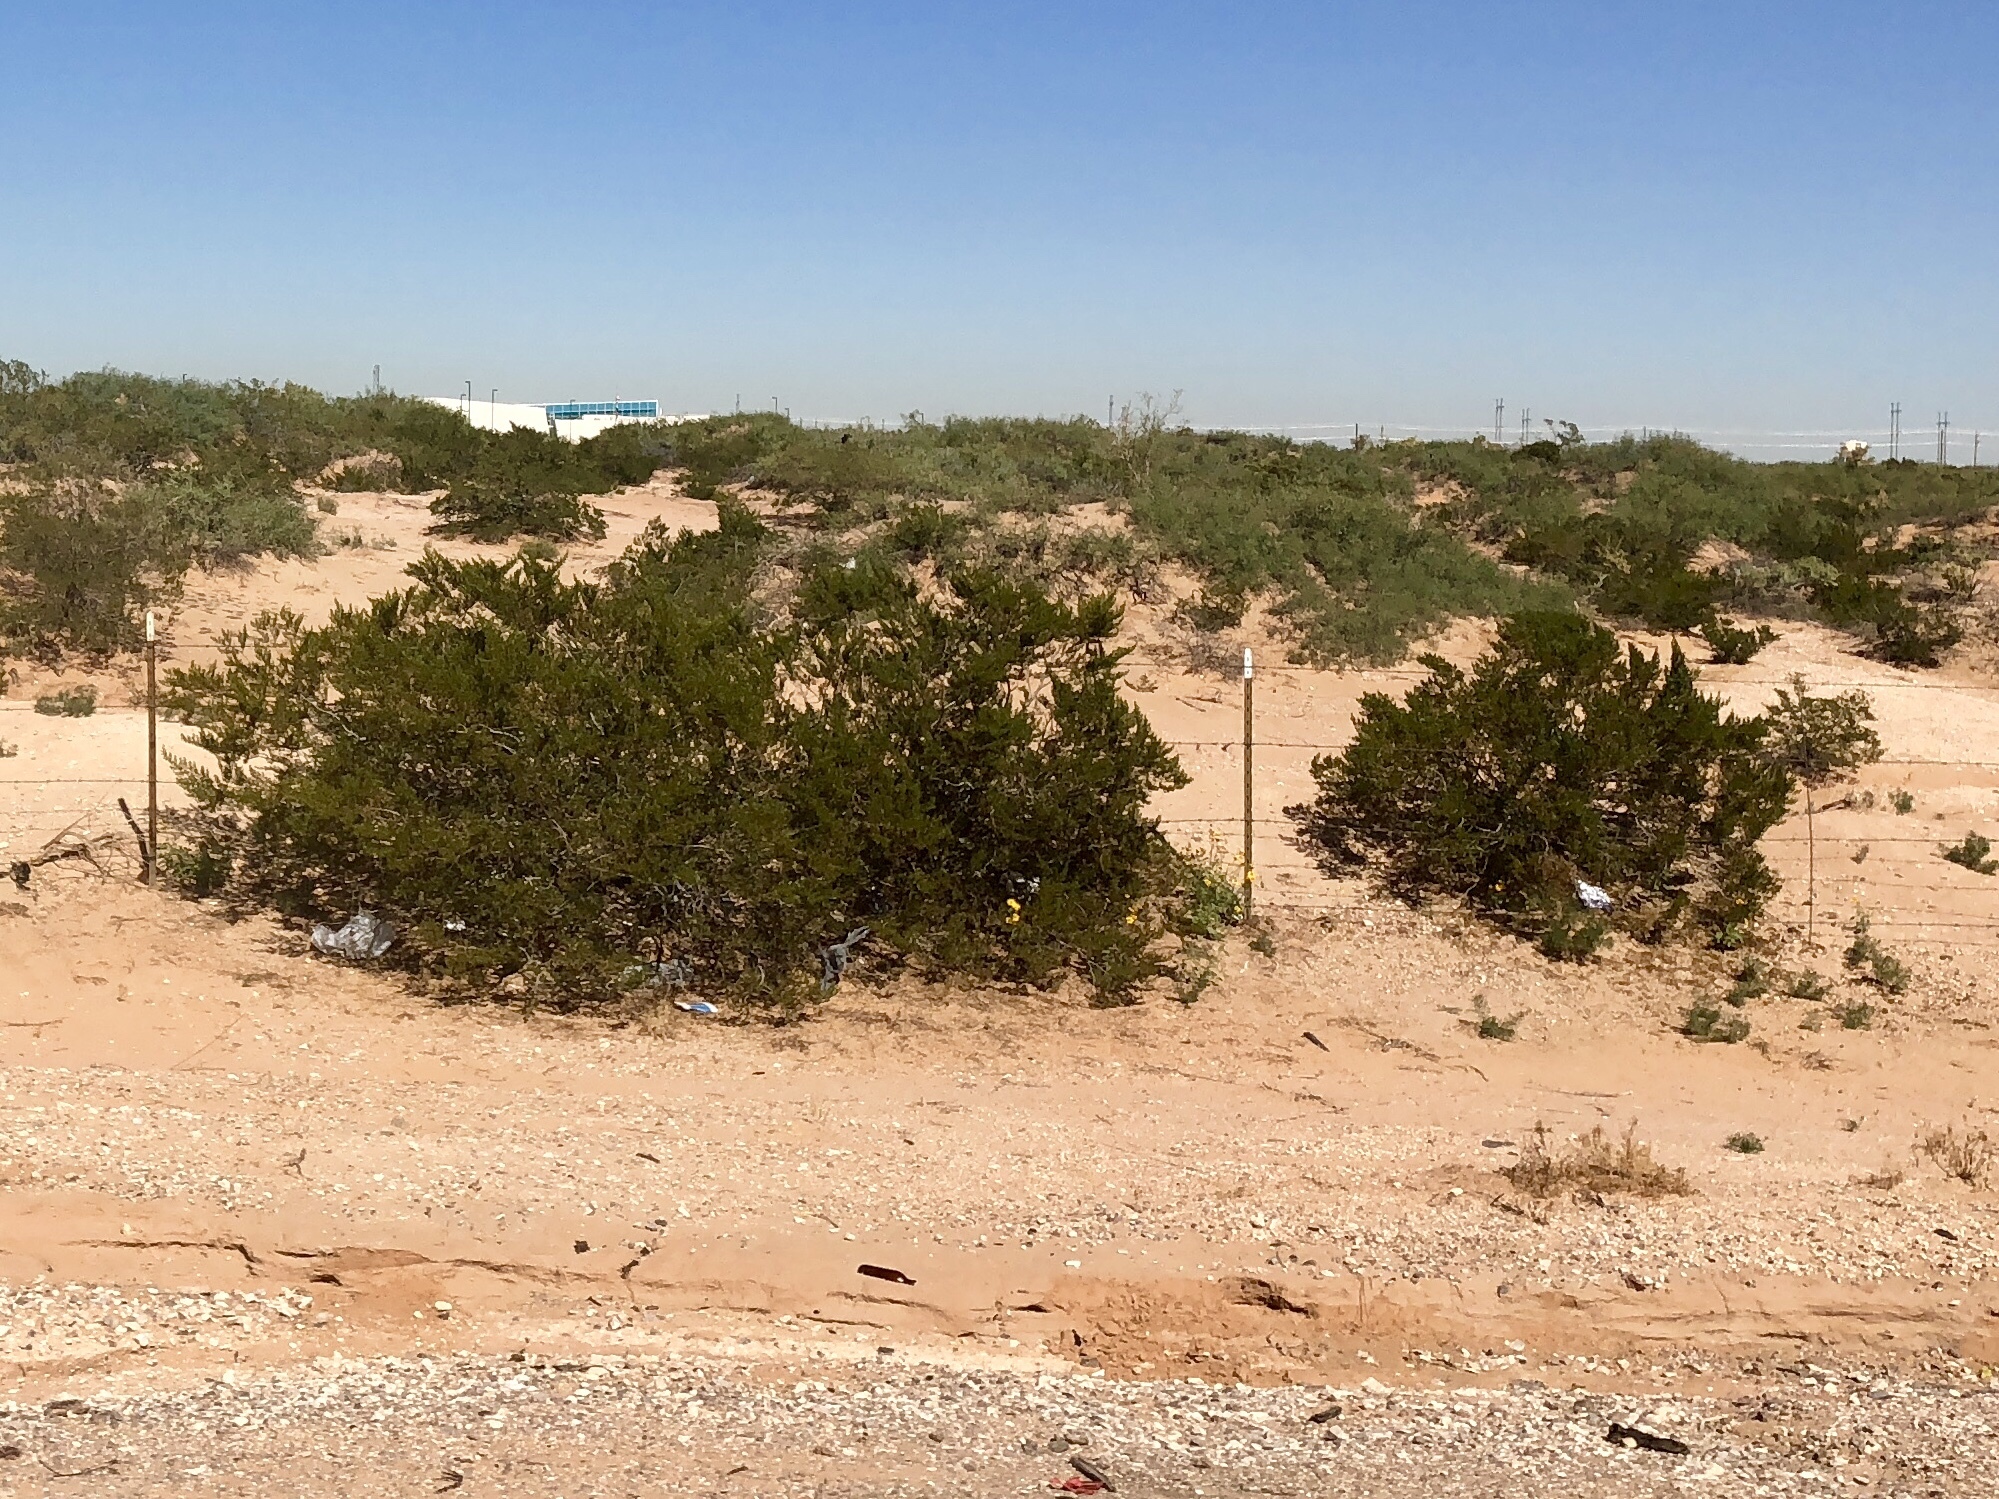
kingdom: Plantae
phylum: Tracheophyta
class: Magnoliopsida
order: Zygophyllales
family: Zygophyllaceae
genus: Larrea
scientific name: Larrea tridentata
